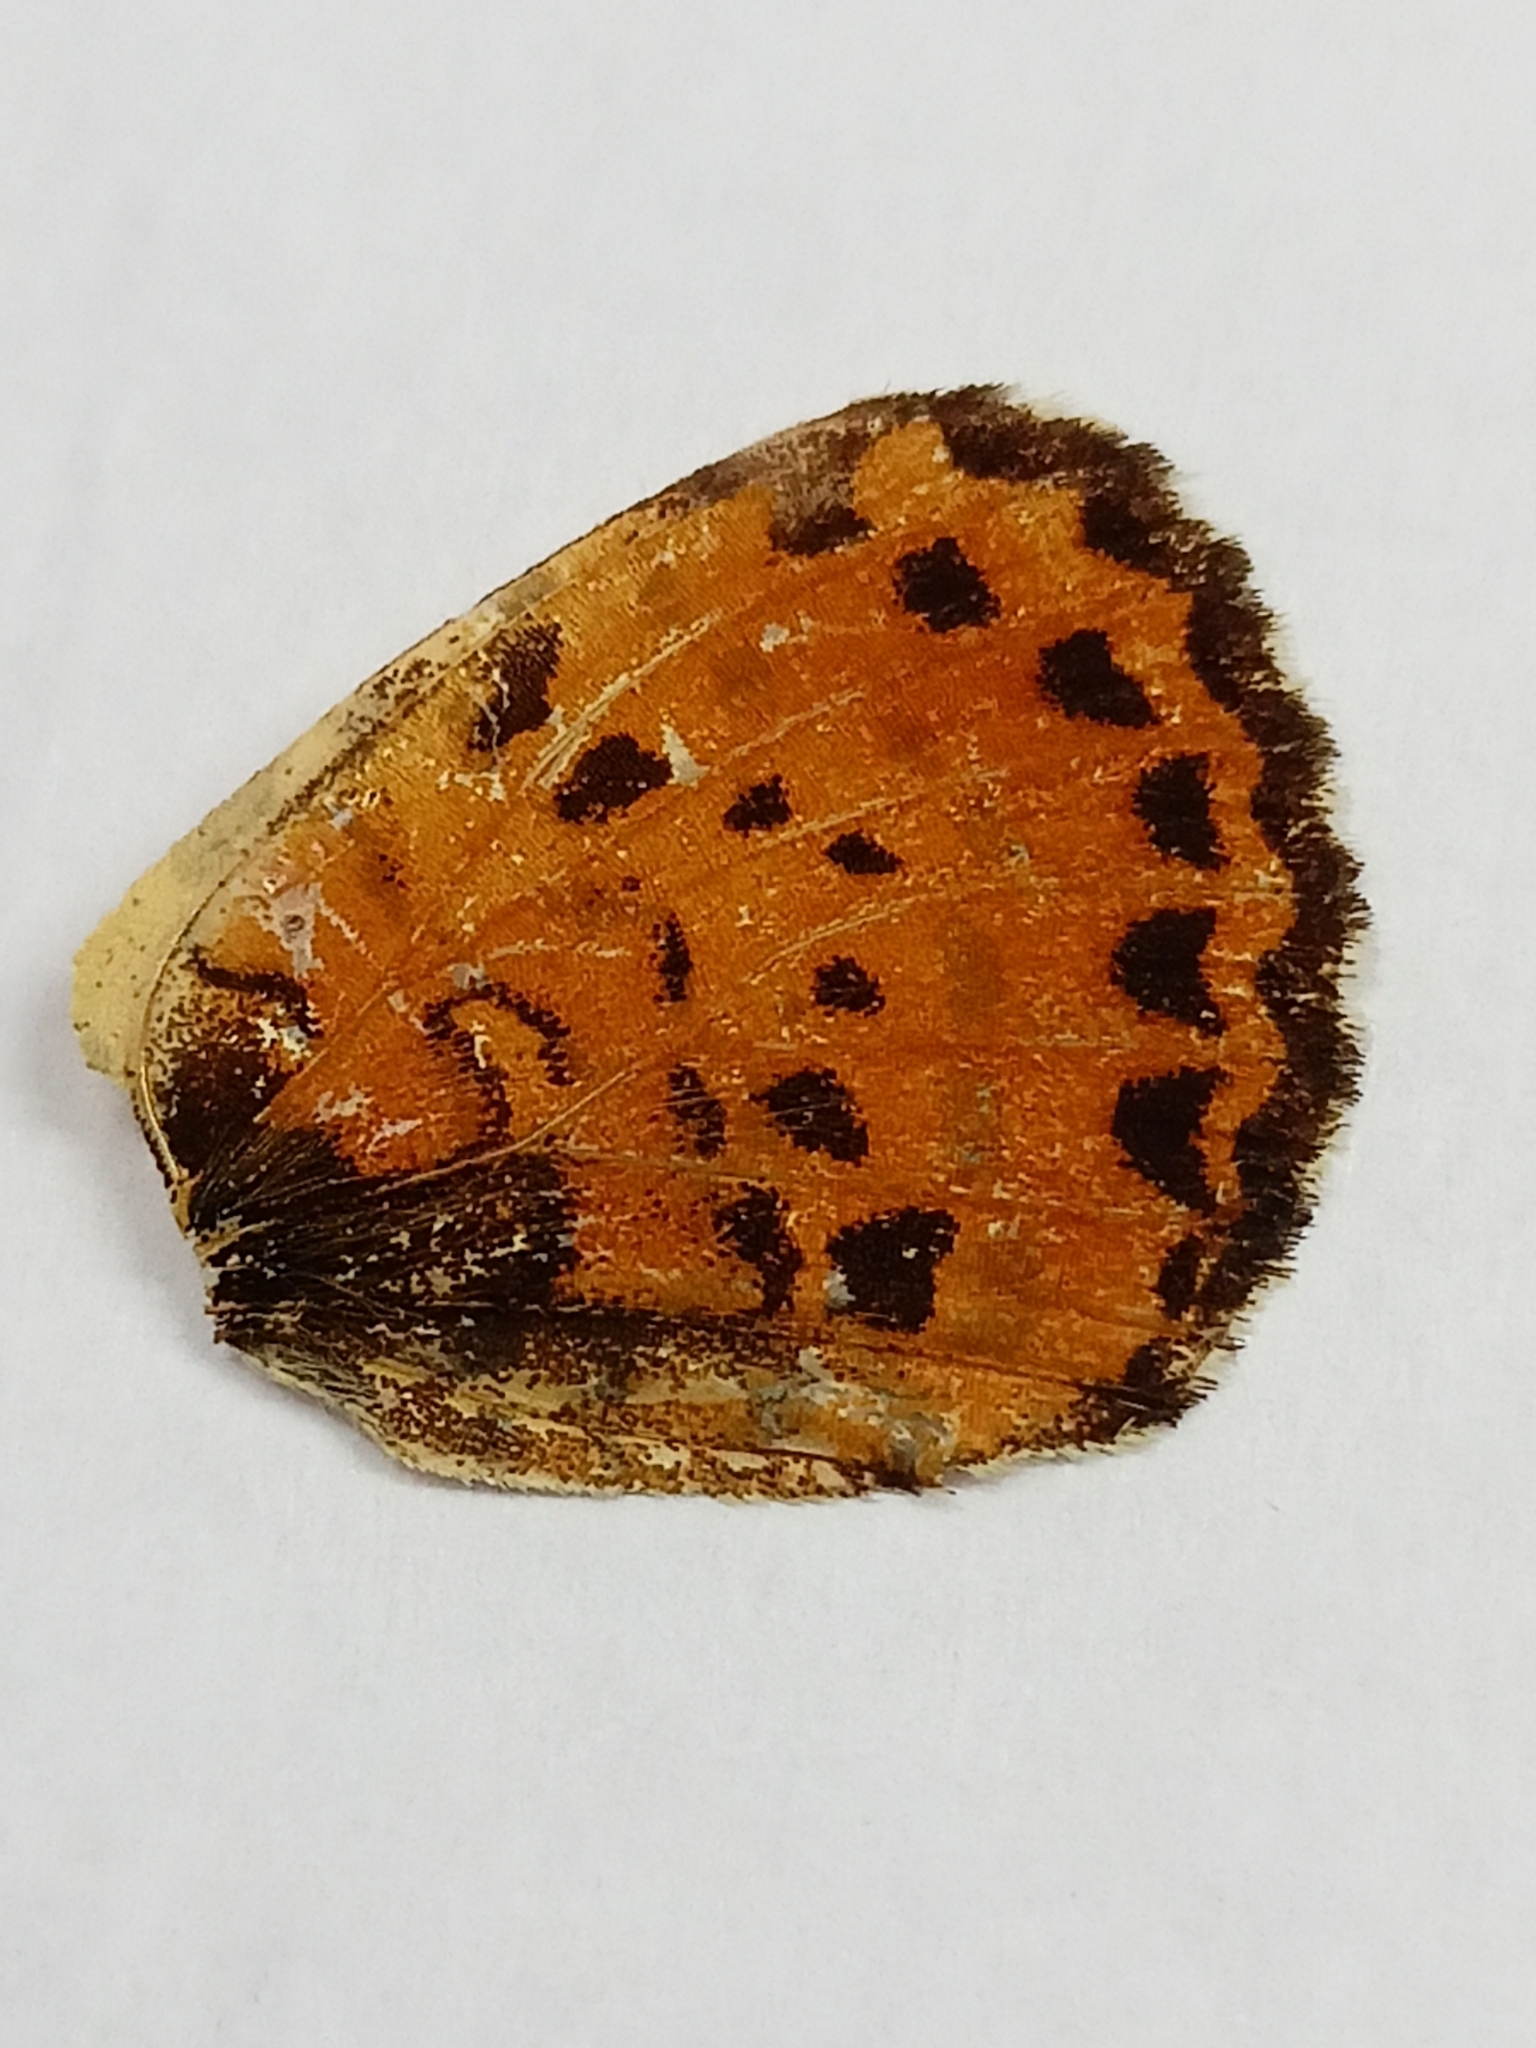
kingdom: Animalia
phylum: Arthropoda
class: Insecta
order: Lepidoptera
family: Nymphalidae
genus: Melitaea
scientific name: Melitaea didyma
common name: Spotted fritillary
